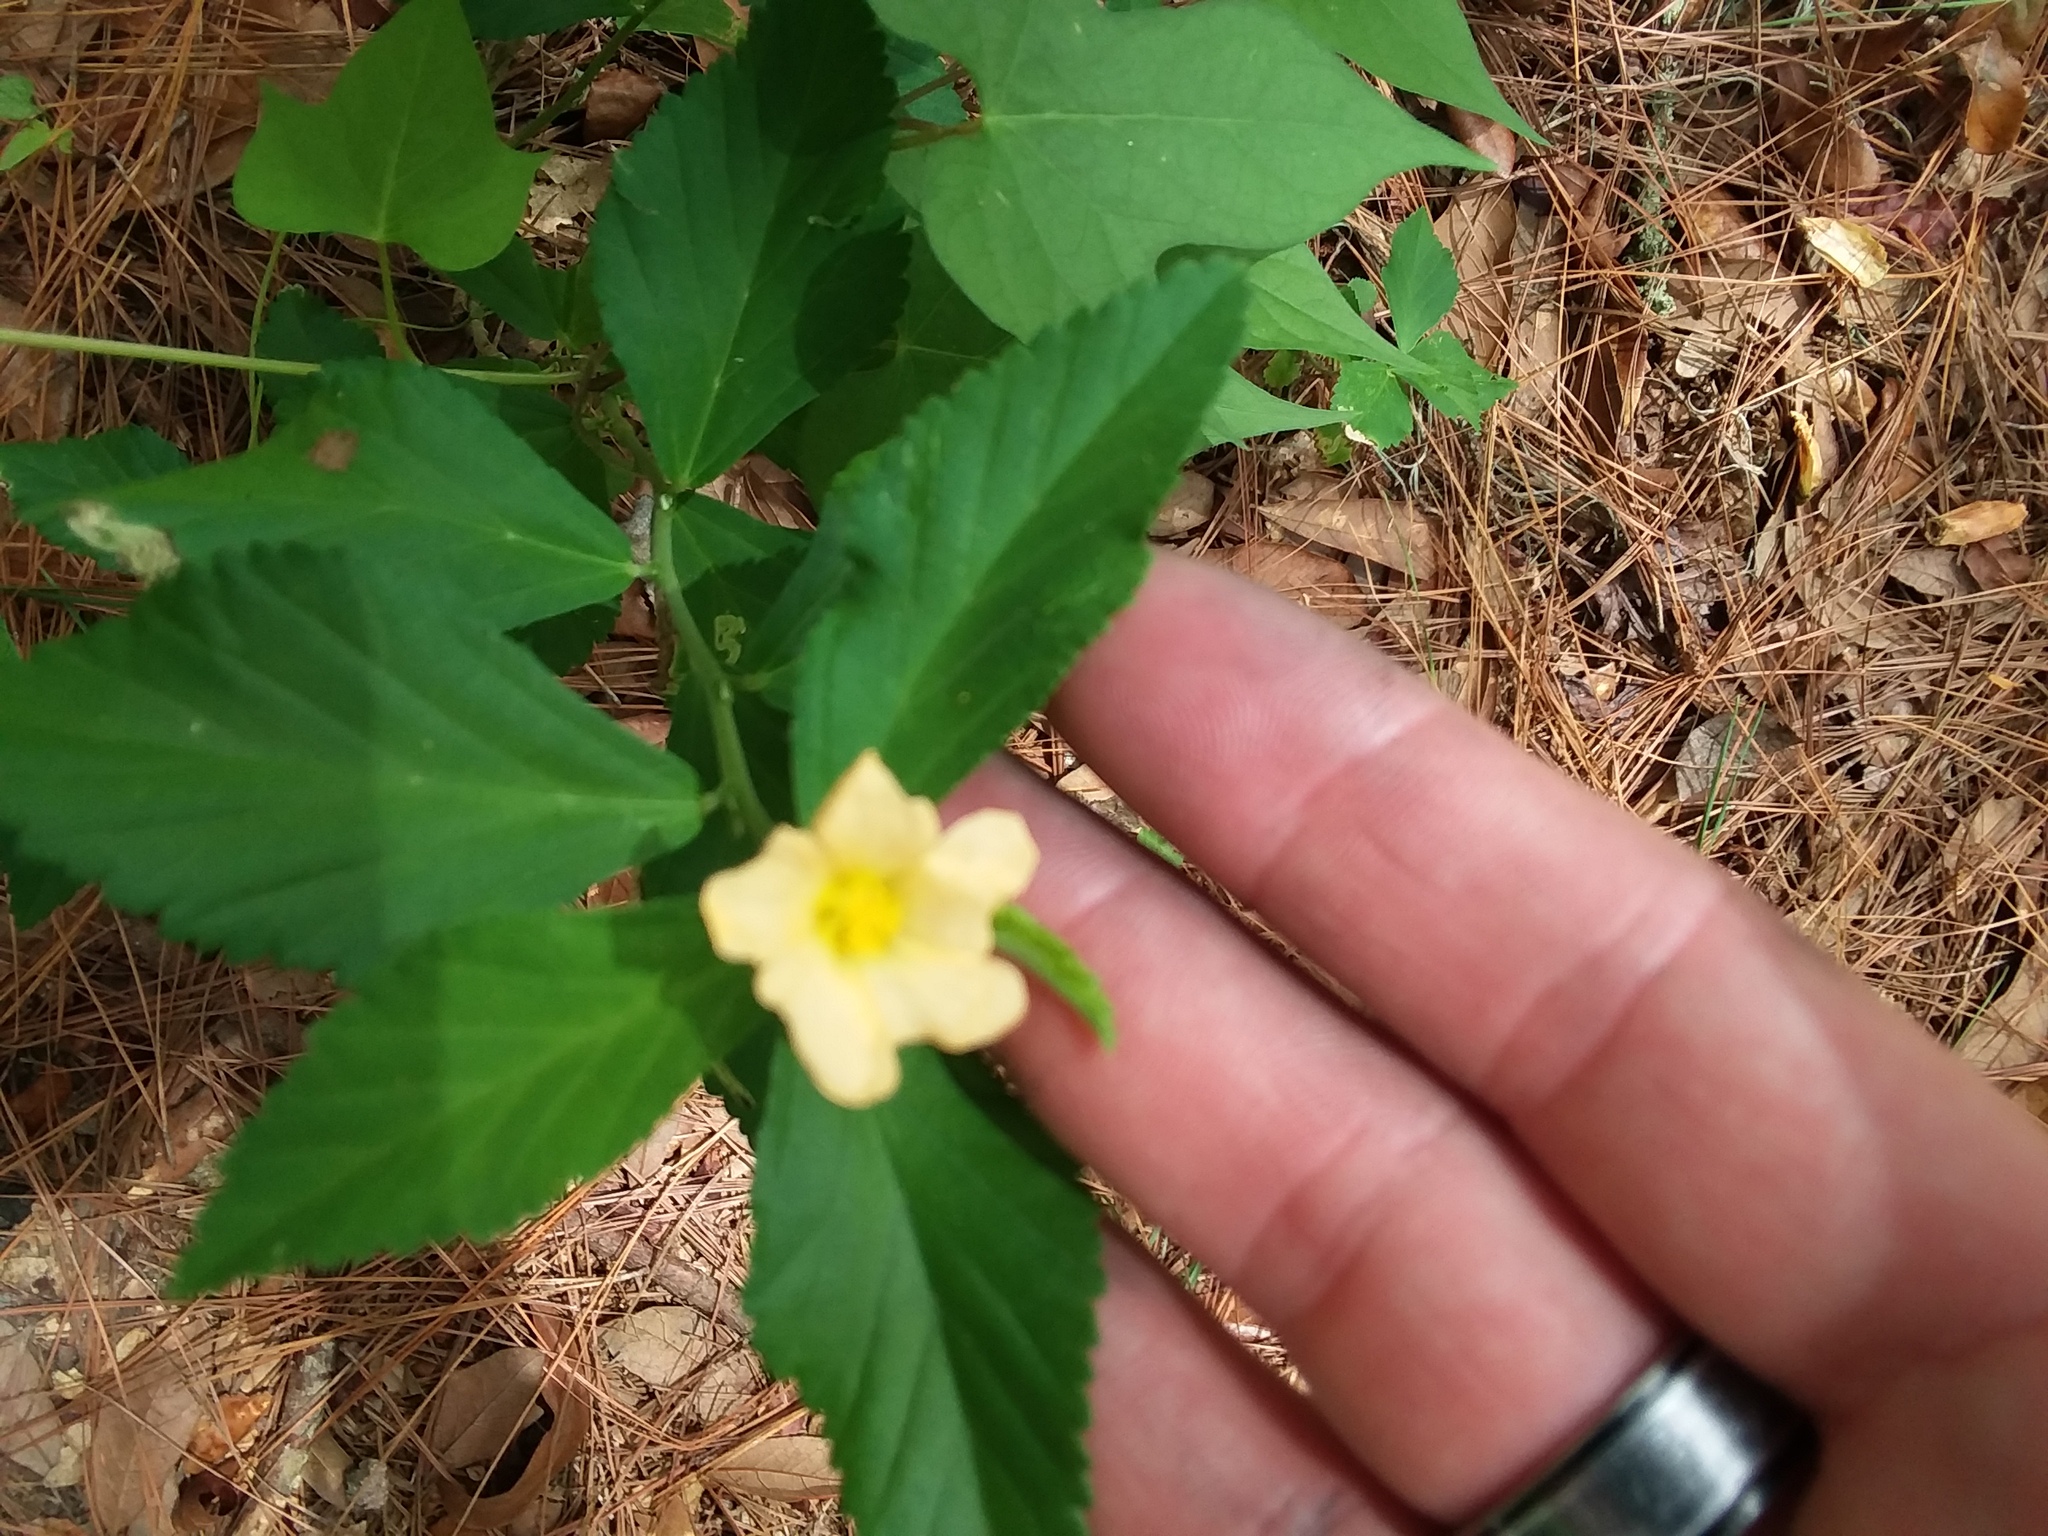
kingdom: Plantae
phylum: Tracheophyta
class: Magnoliopsida
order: Malvales
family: Malvaceae
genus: Sida
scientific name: Sida rhombifolia
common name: Queensland-hemp
